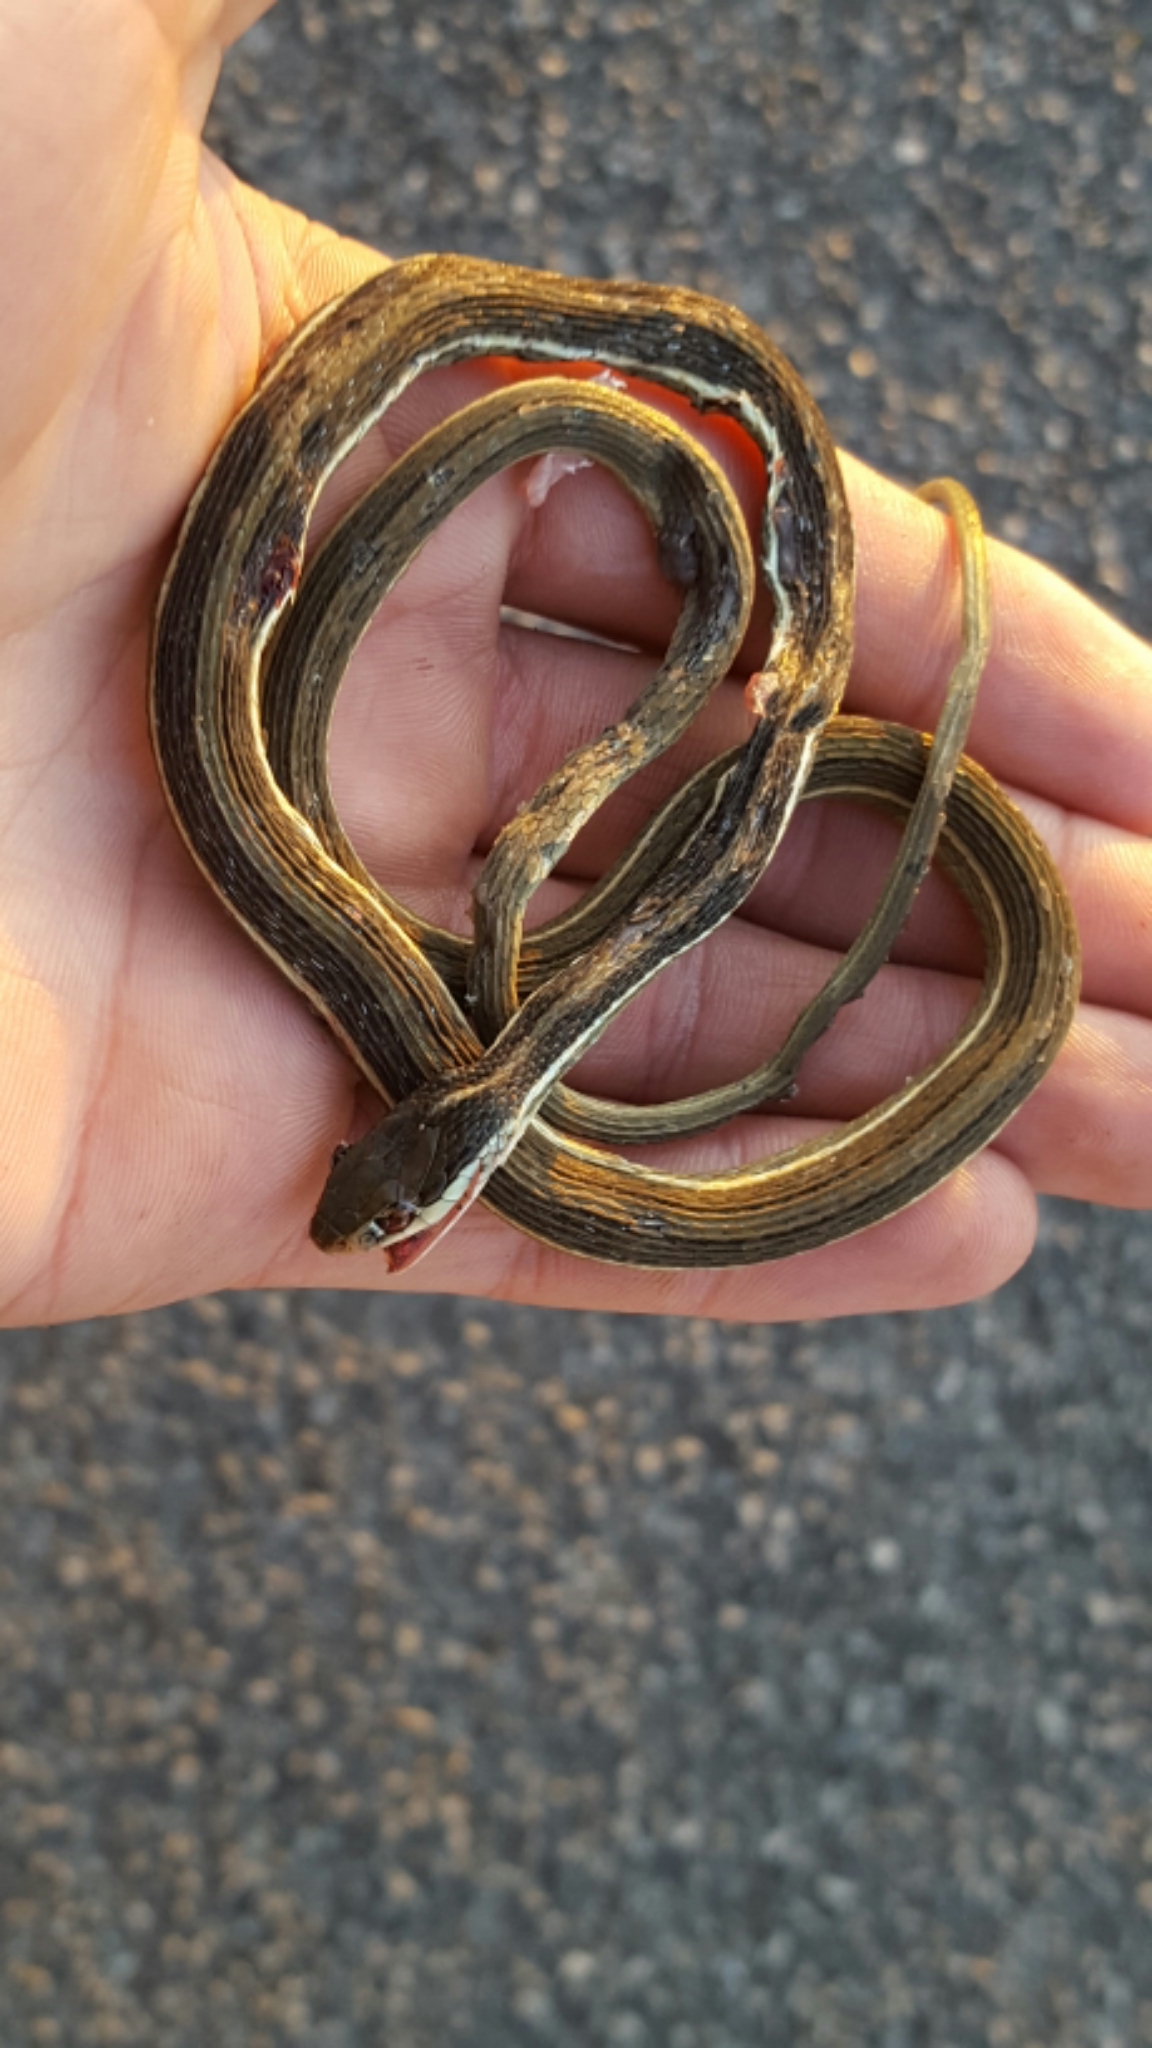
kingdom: Animalia
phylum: Chordata
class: Squamata
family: Colubridae
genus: Thamnophis
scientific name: Thamnophis saurita
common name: Eastern ribbonsnake
